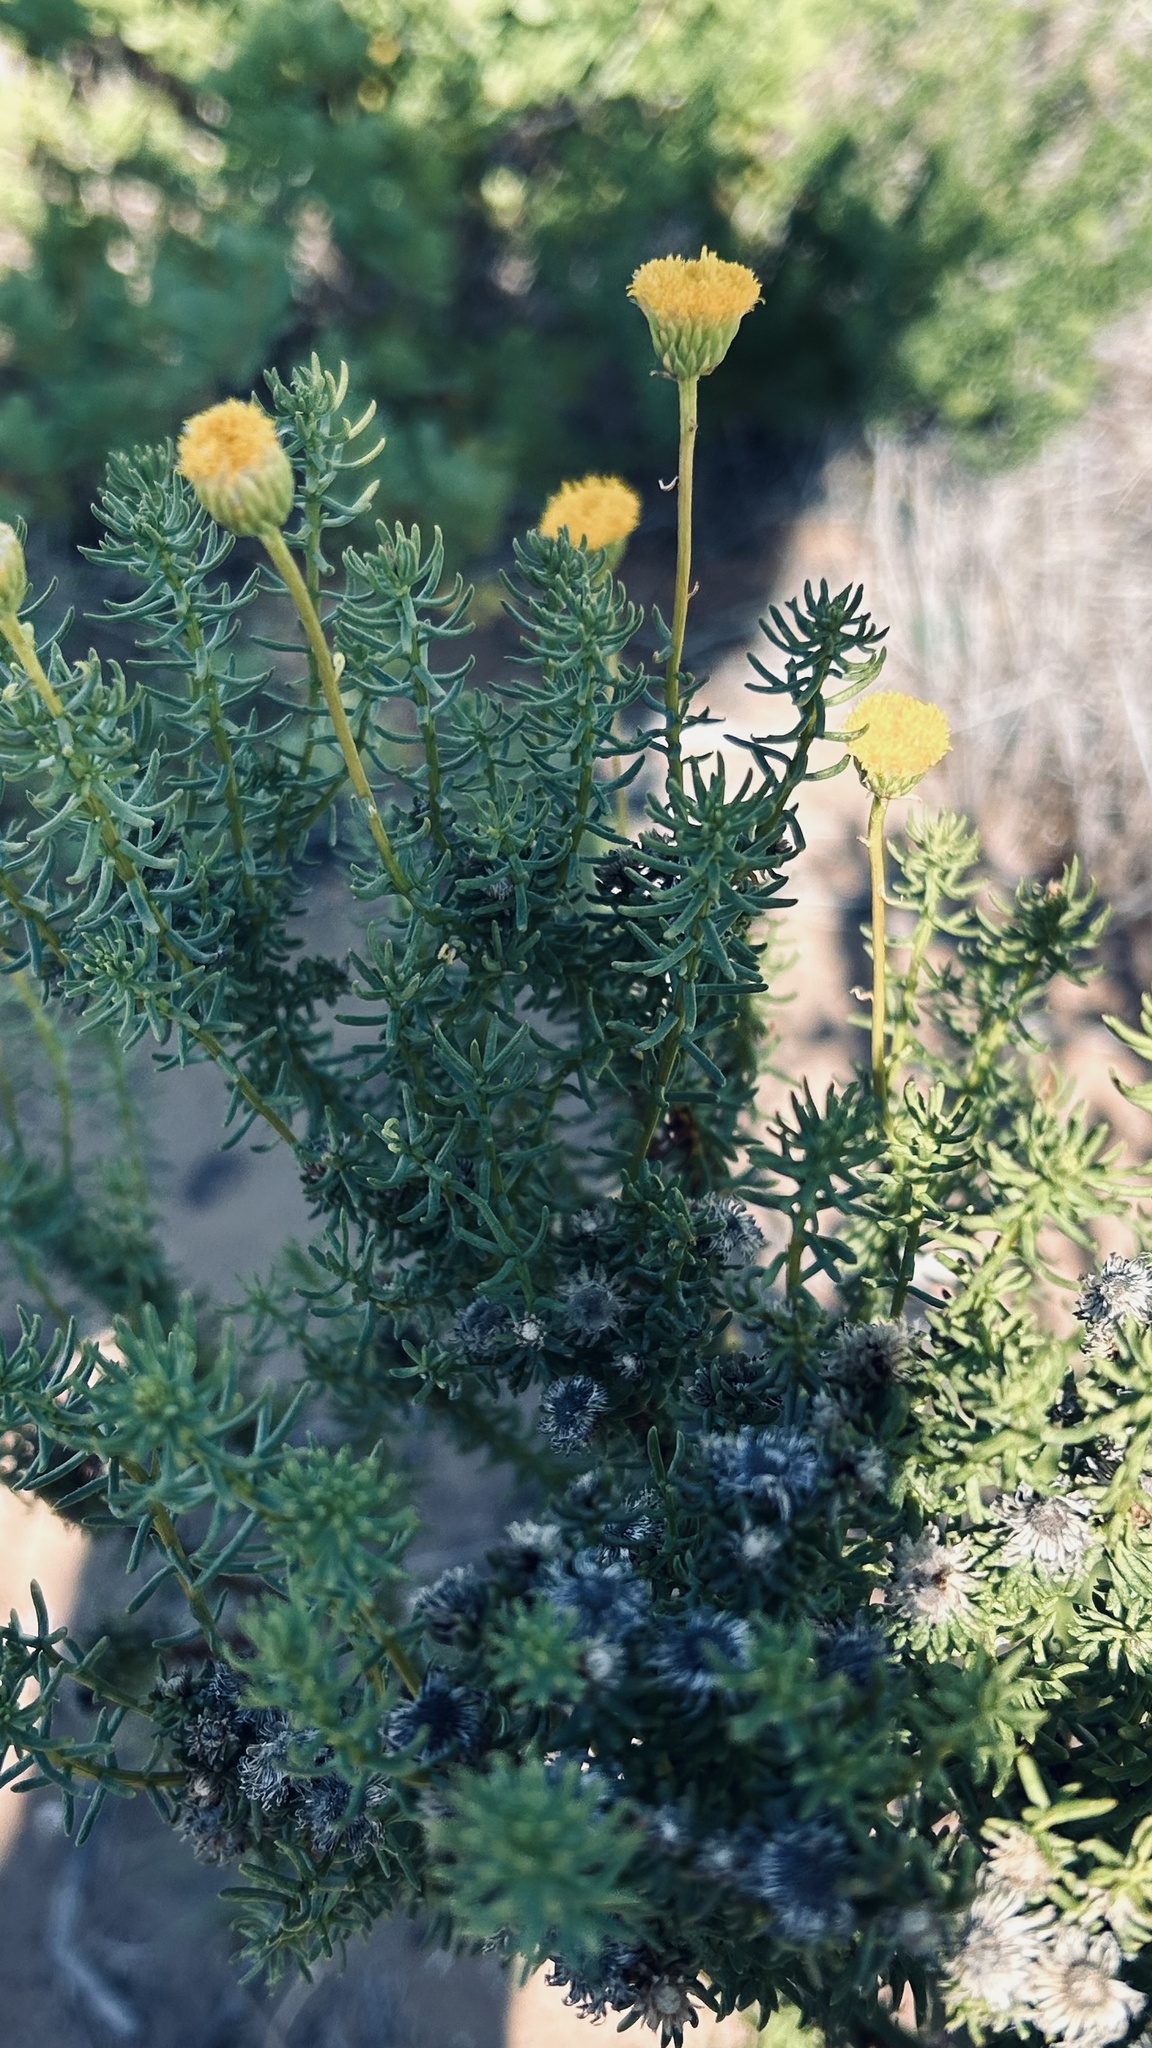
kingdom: Plantae
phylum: Tracheophyta
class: Magnoliopsida
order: Asterales
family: Asteraceae
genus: Chrysocoma
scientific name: Chrysocoma ciliata
